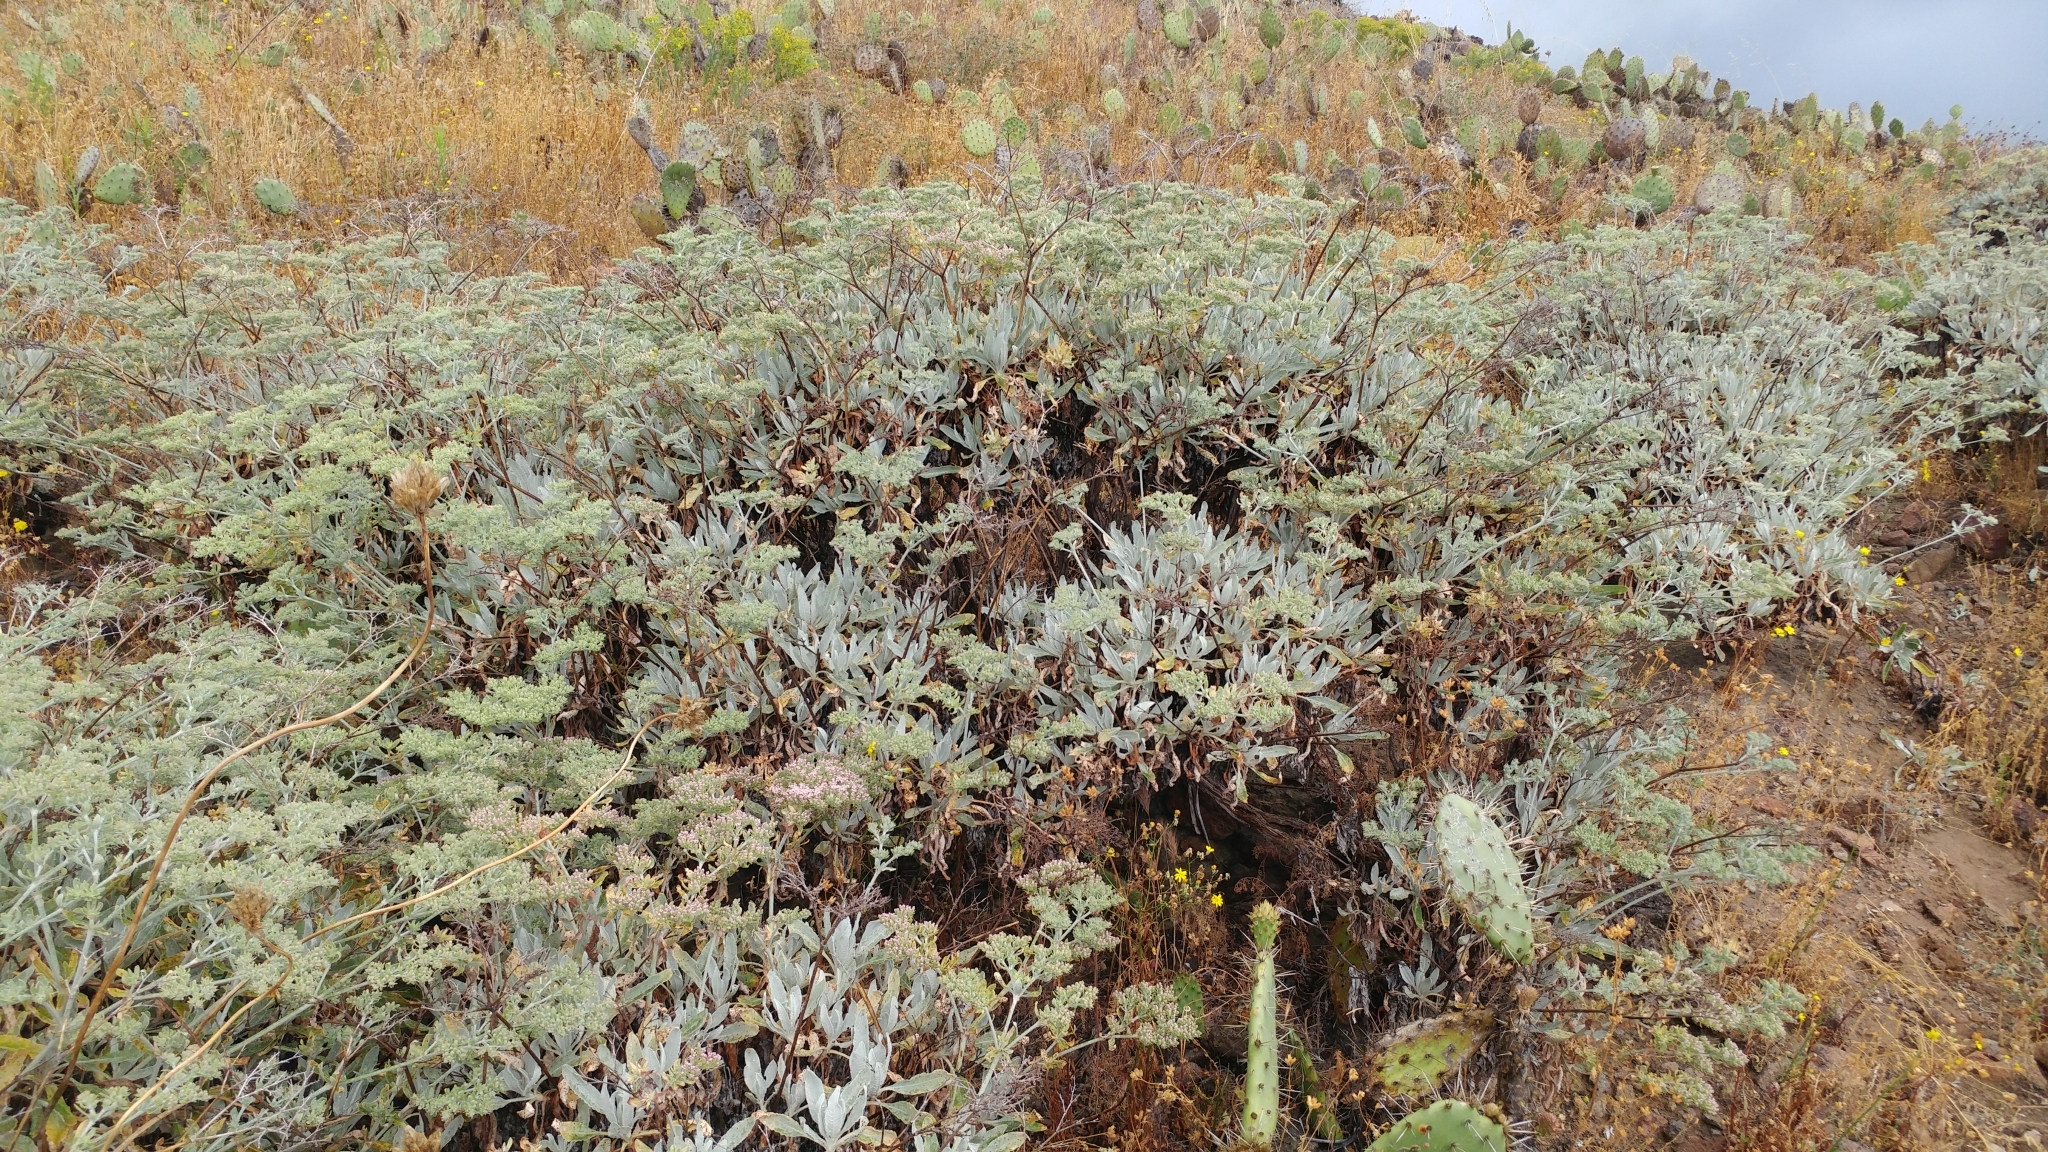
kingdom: Plantae
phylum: Tracheophyta
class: Magnoliopsida
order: Caryophyllales
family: Polygonaceae
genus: Eriogonum
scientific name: Eriogonum giganteum
